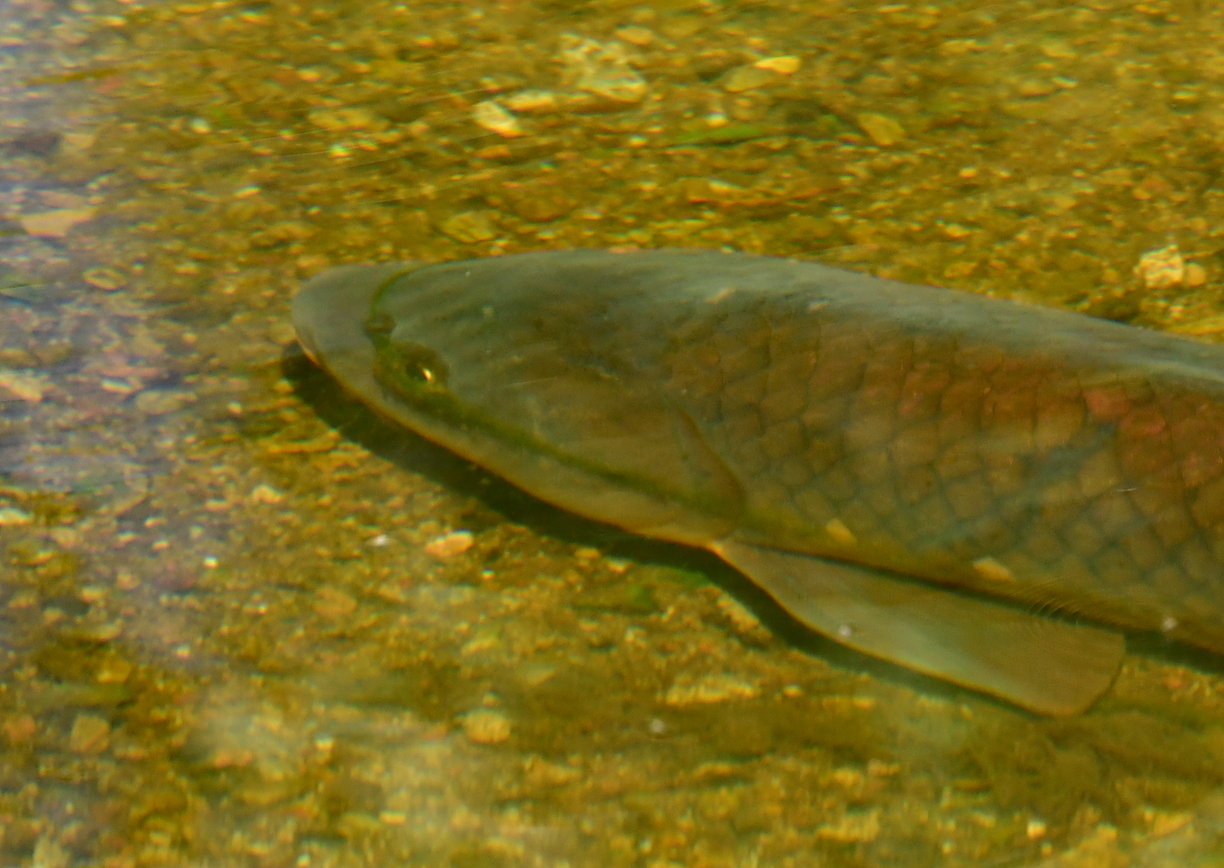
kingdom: Animalia
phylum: Chordata
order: Cypriniformes
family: Cyprinidae
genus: Cyprinus
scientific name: Cyprinus carpio
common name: Common carp
